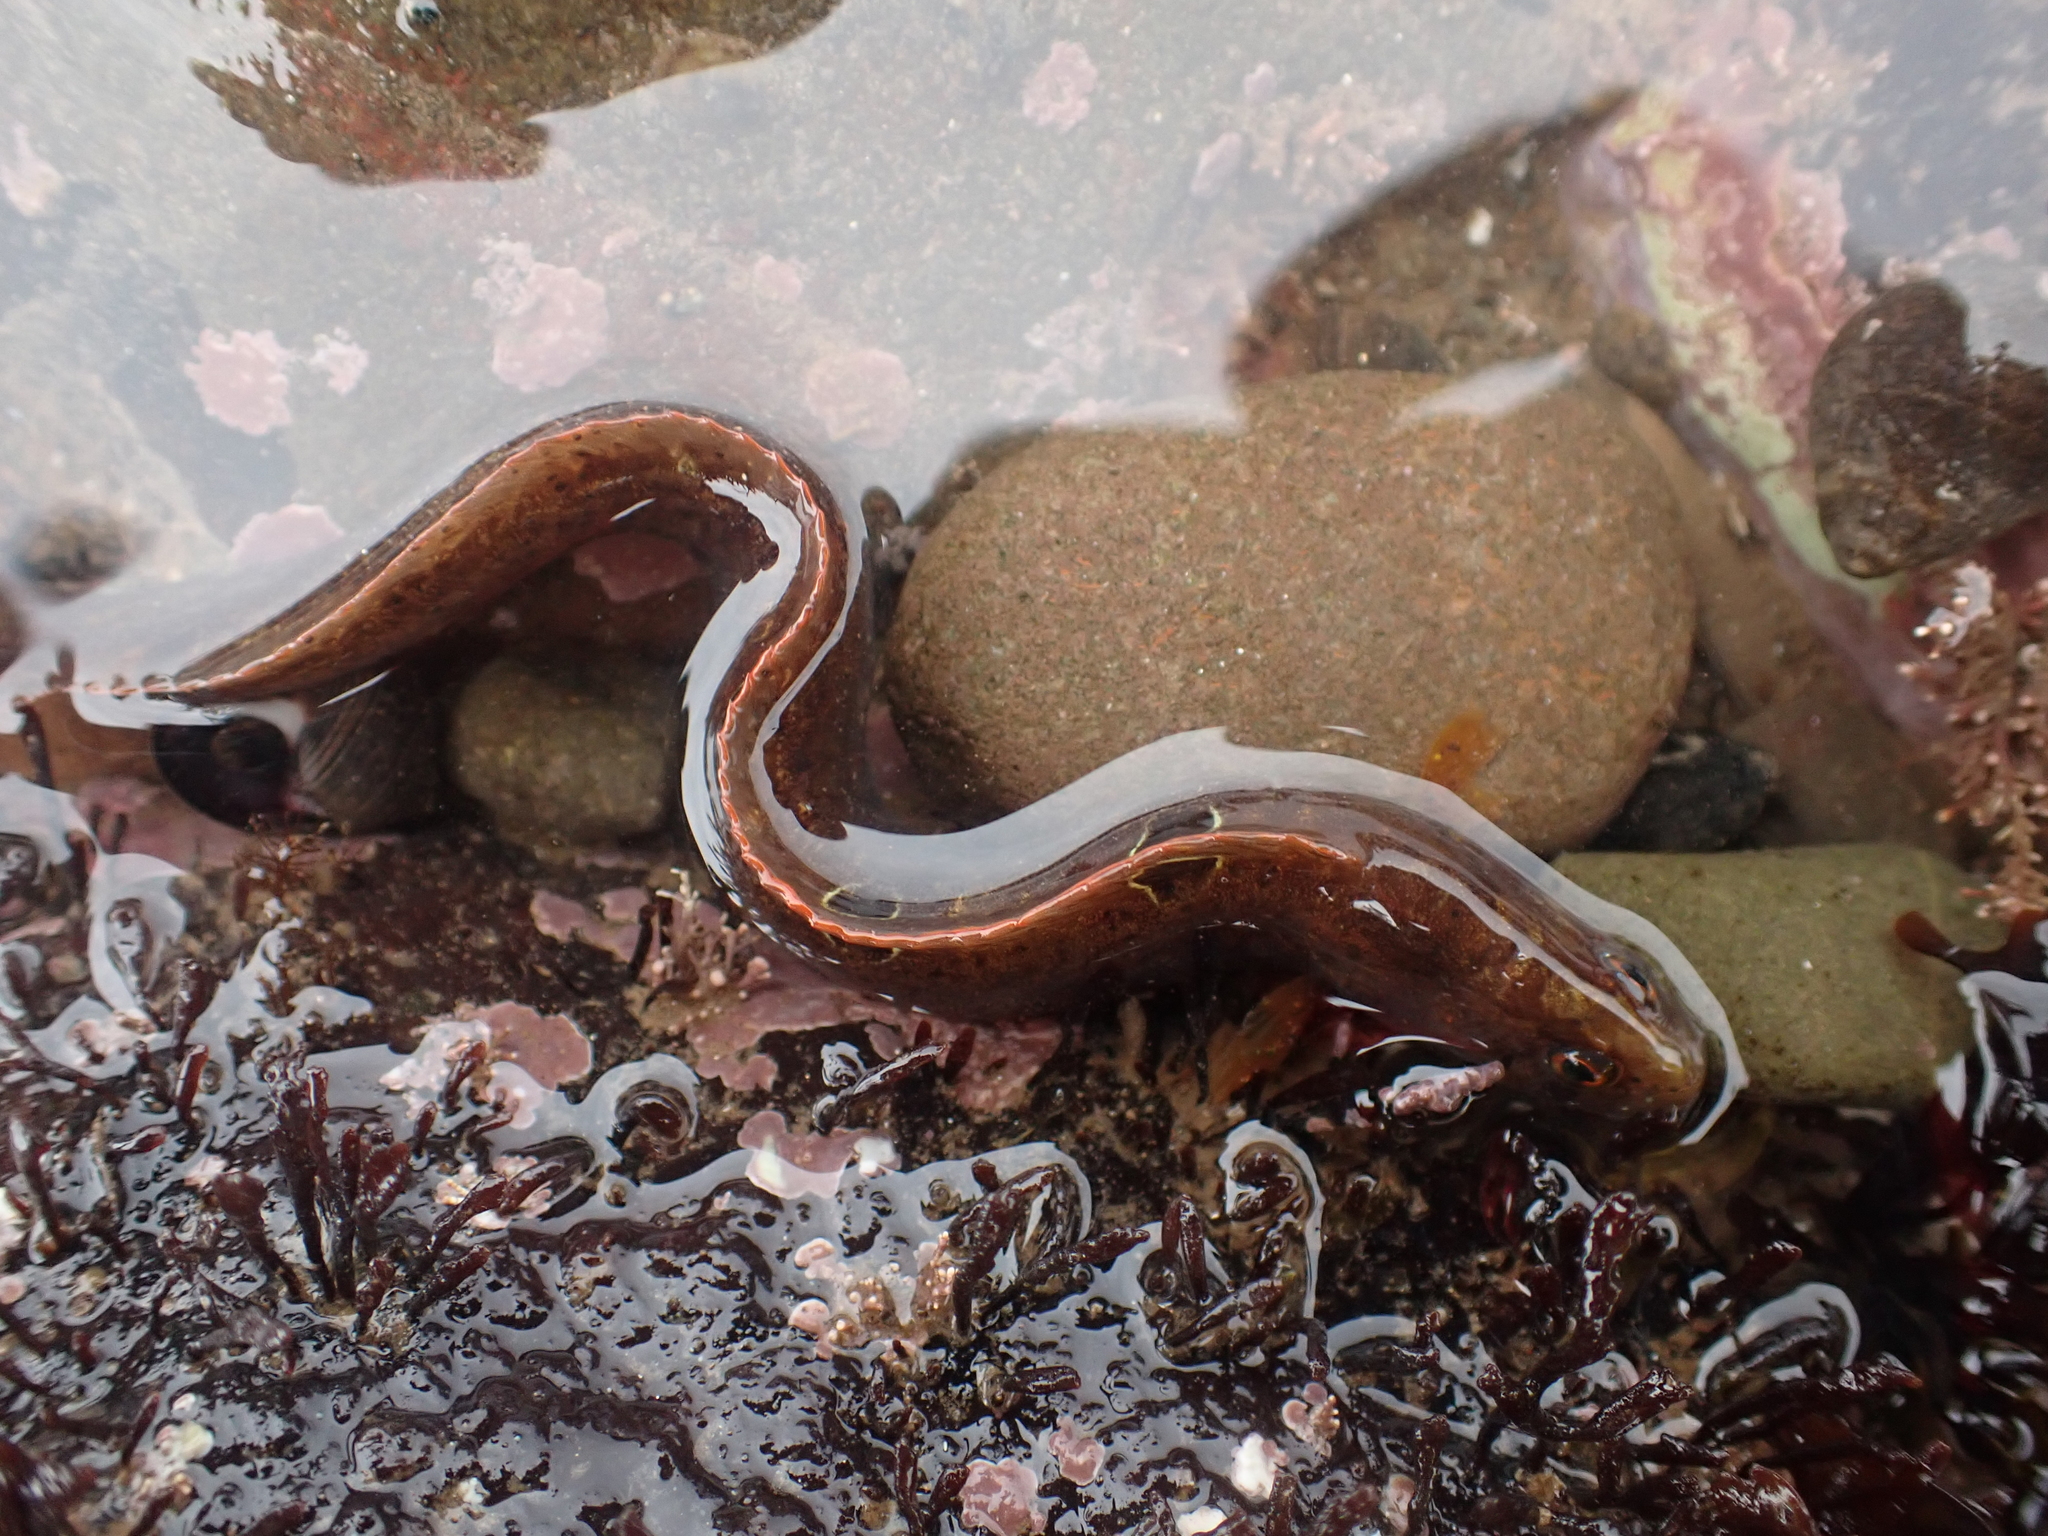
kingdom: Animalia
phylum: Chordata
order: Perciformes
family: Pholidae
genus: Pholis
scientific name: Pholis gunnellus
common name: Butterfish
